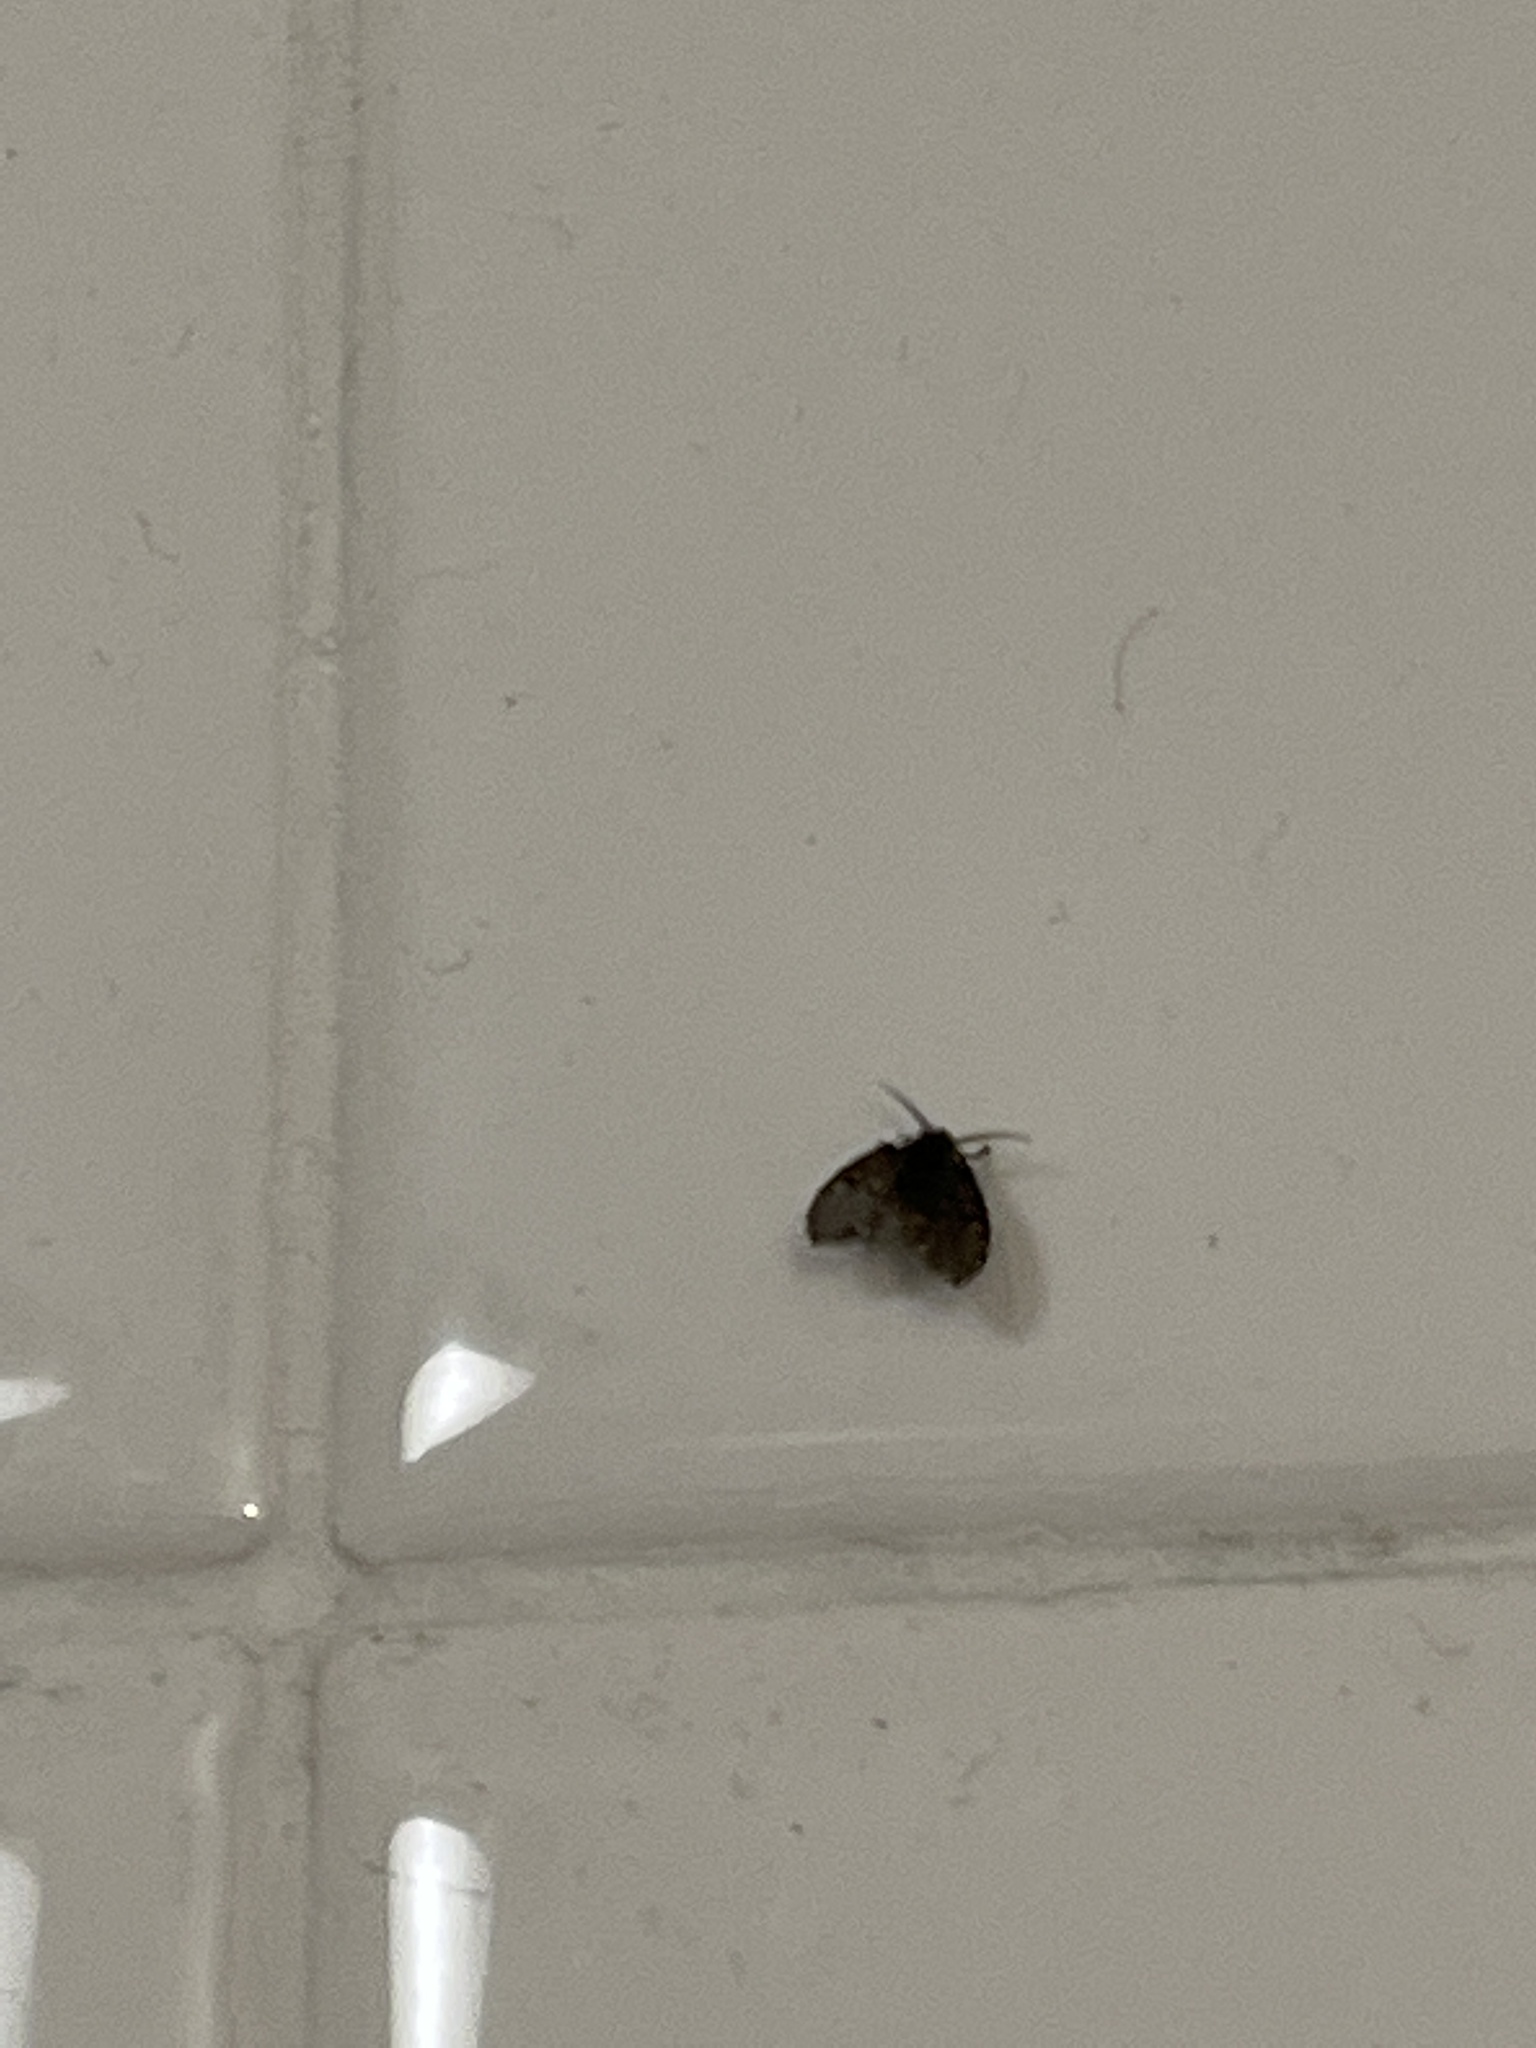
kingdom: Animalia
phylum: Arthropoda
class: Insecta
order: Diptera
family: Psychodidae
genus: Clogmia
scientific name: Clogmia albipunctatus
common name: White-spotted moth fly
